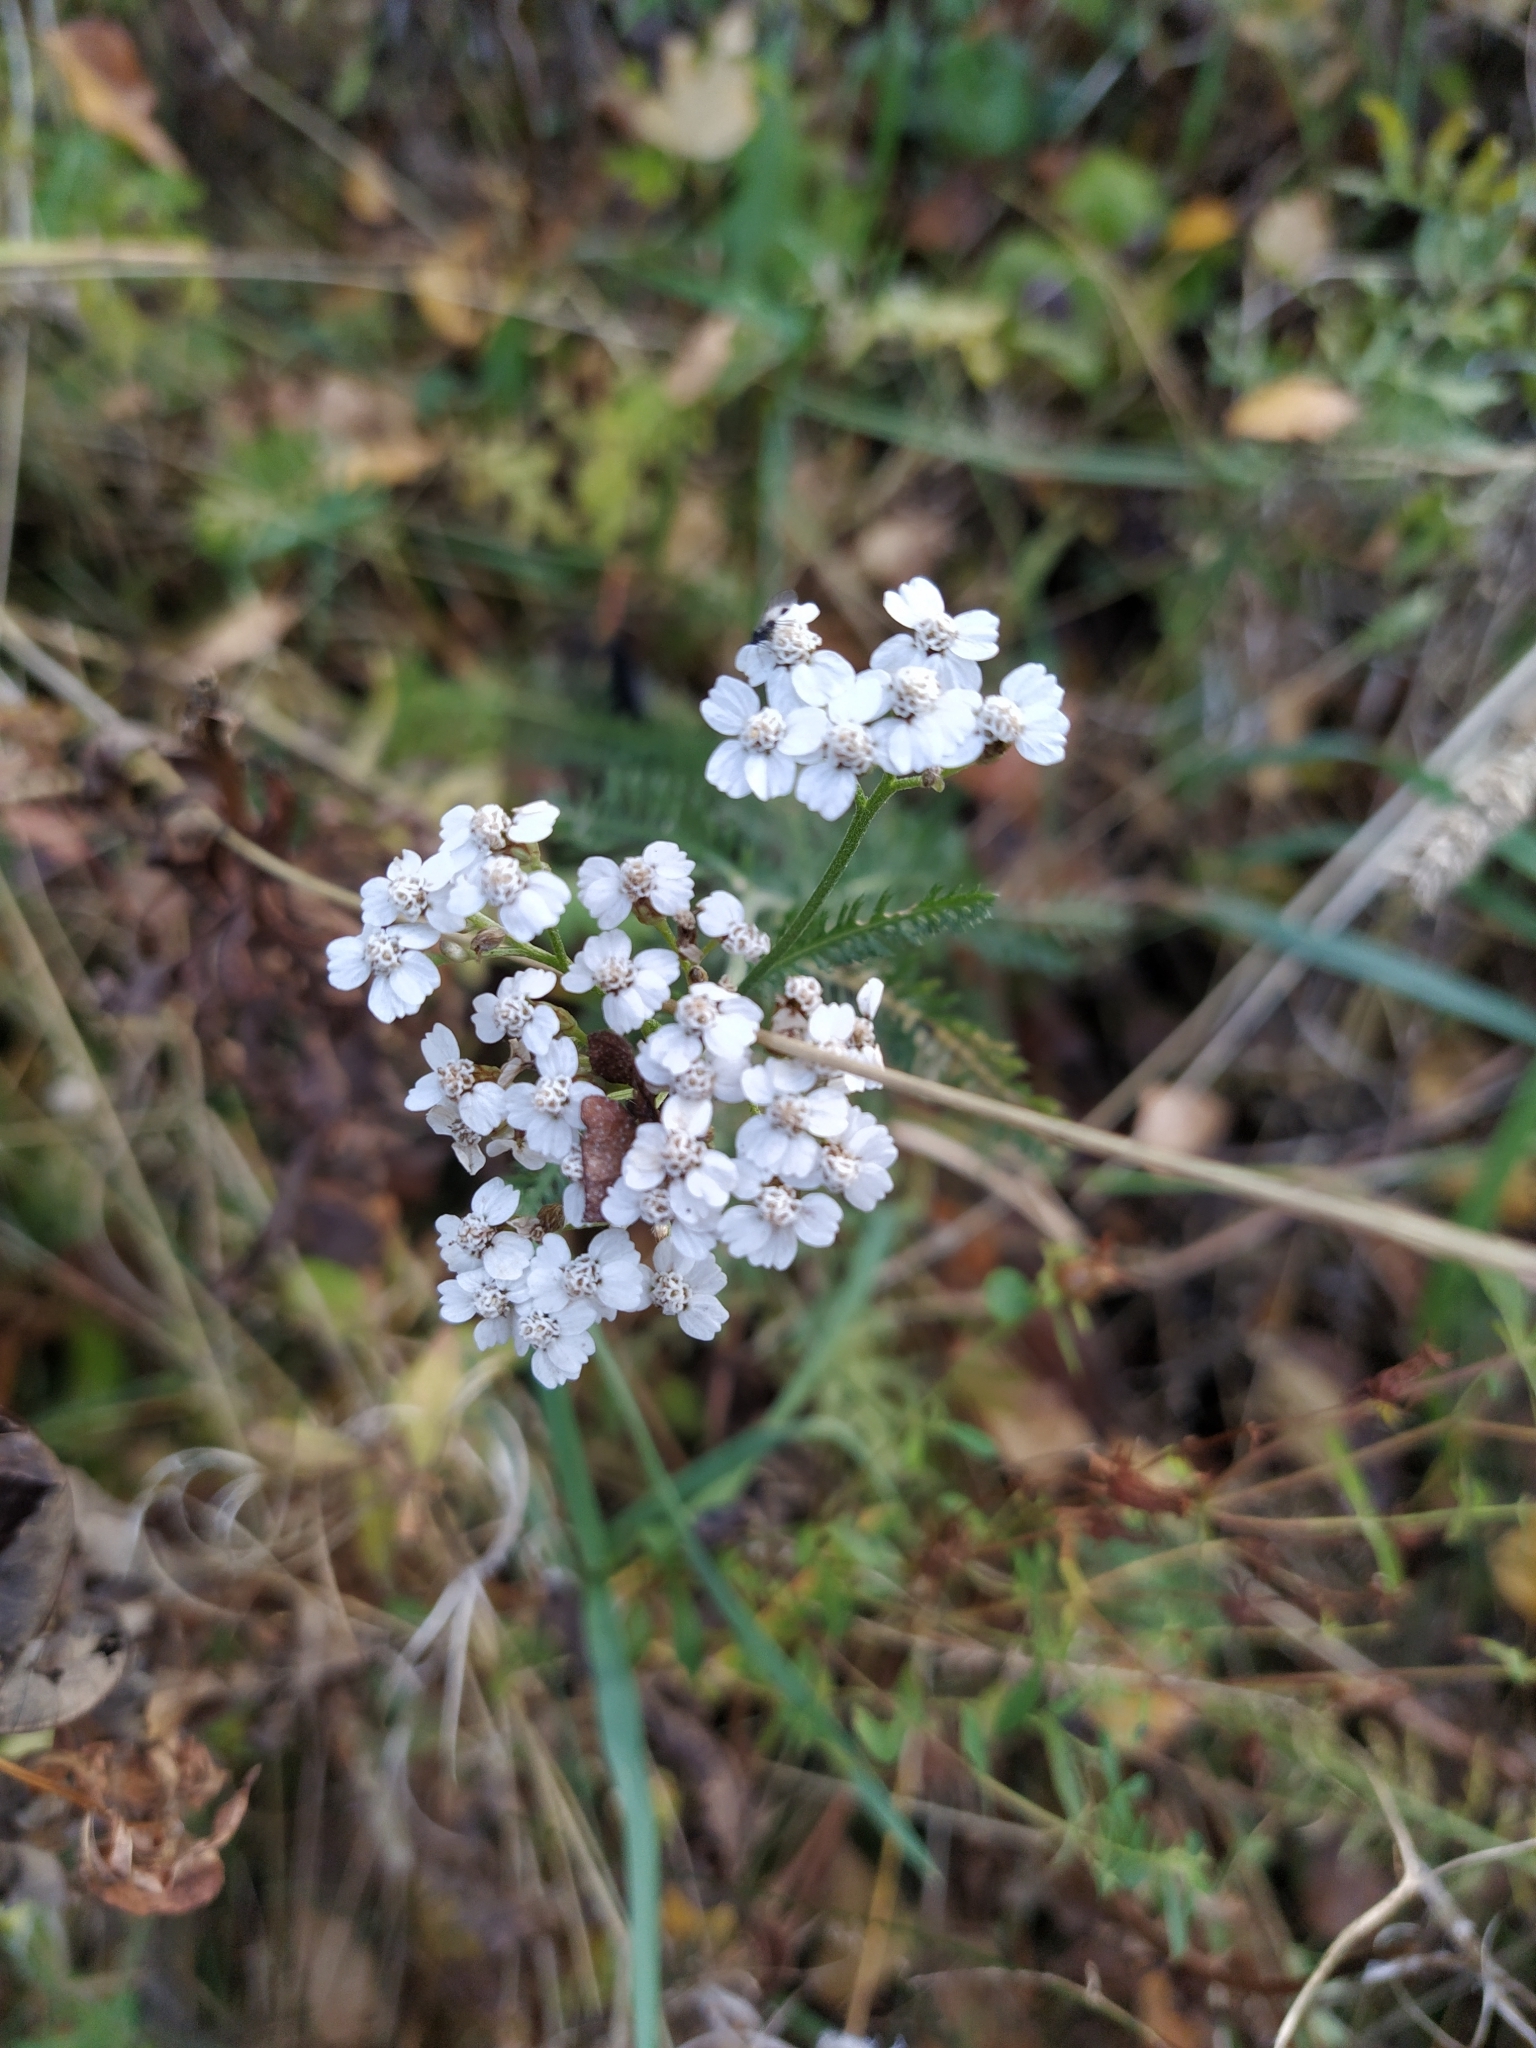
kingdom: Plantae
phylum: Tracheophyta
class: Magnoliopsida
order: Asterales
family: Asteraceae
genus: Achillea
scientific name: Achillea millefolium
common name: Yarrow
